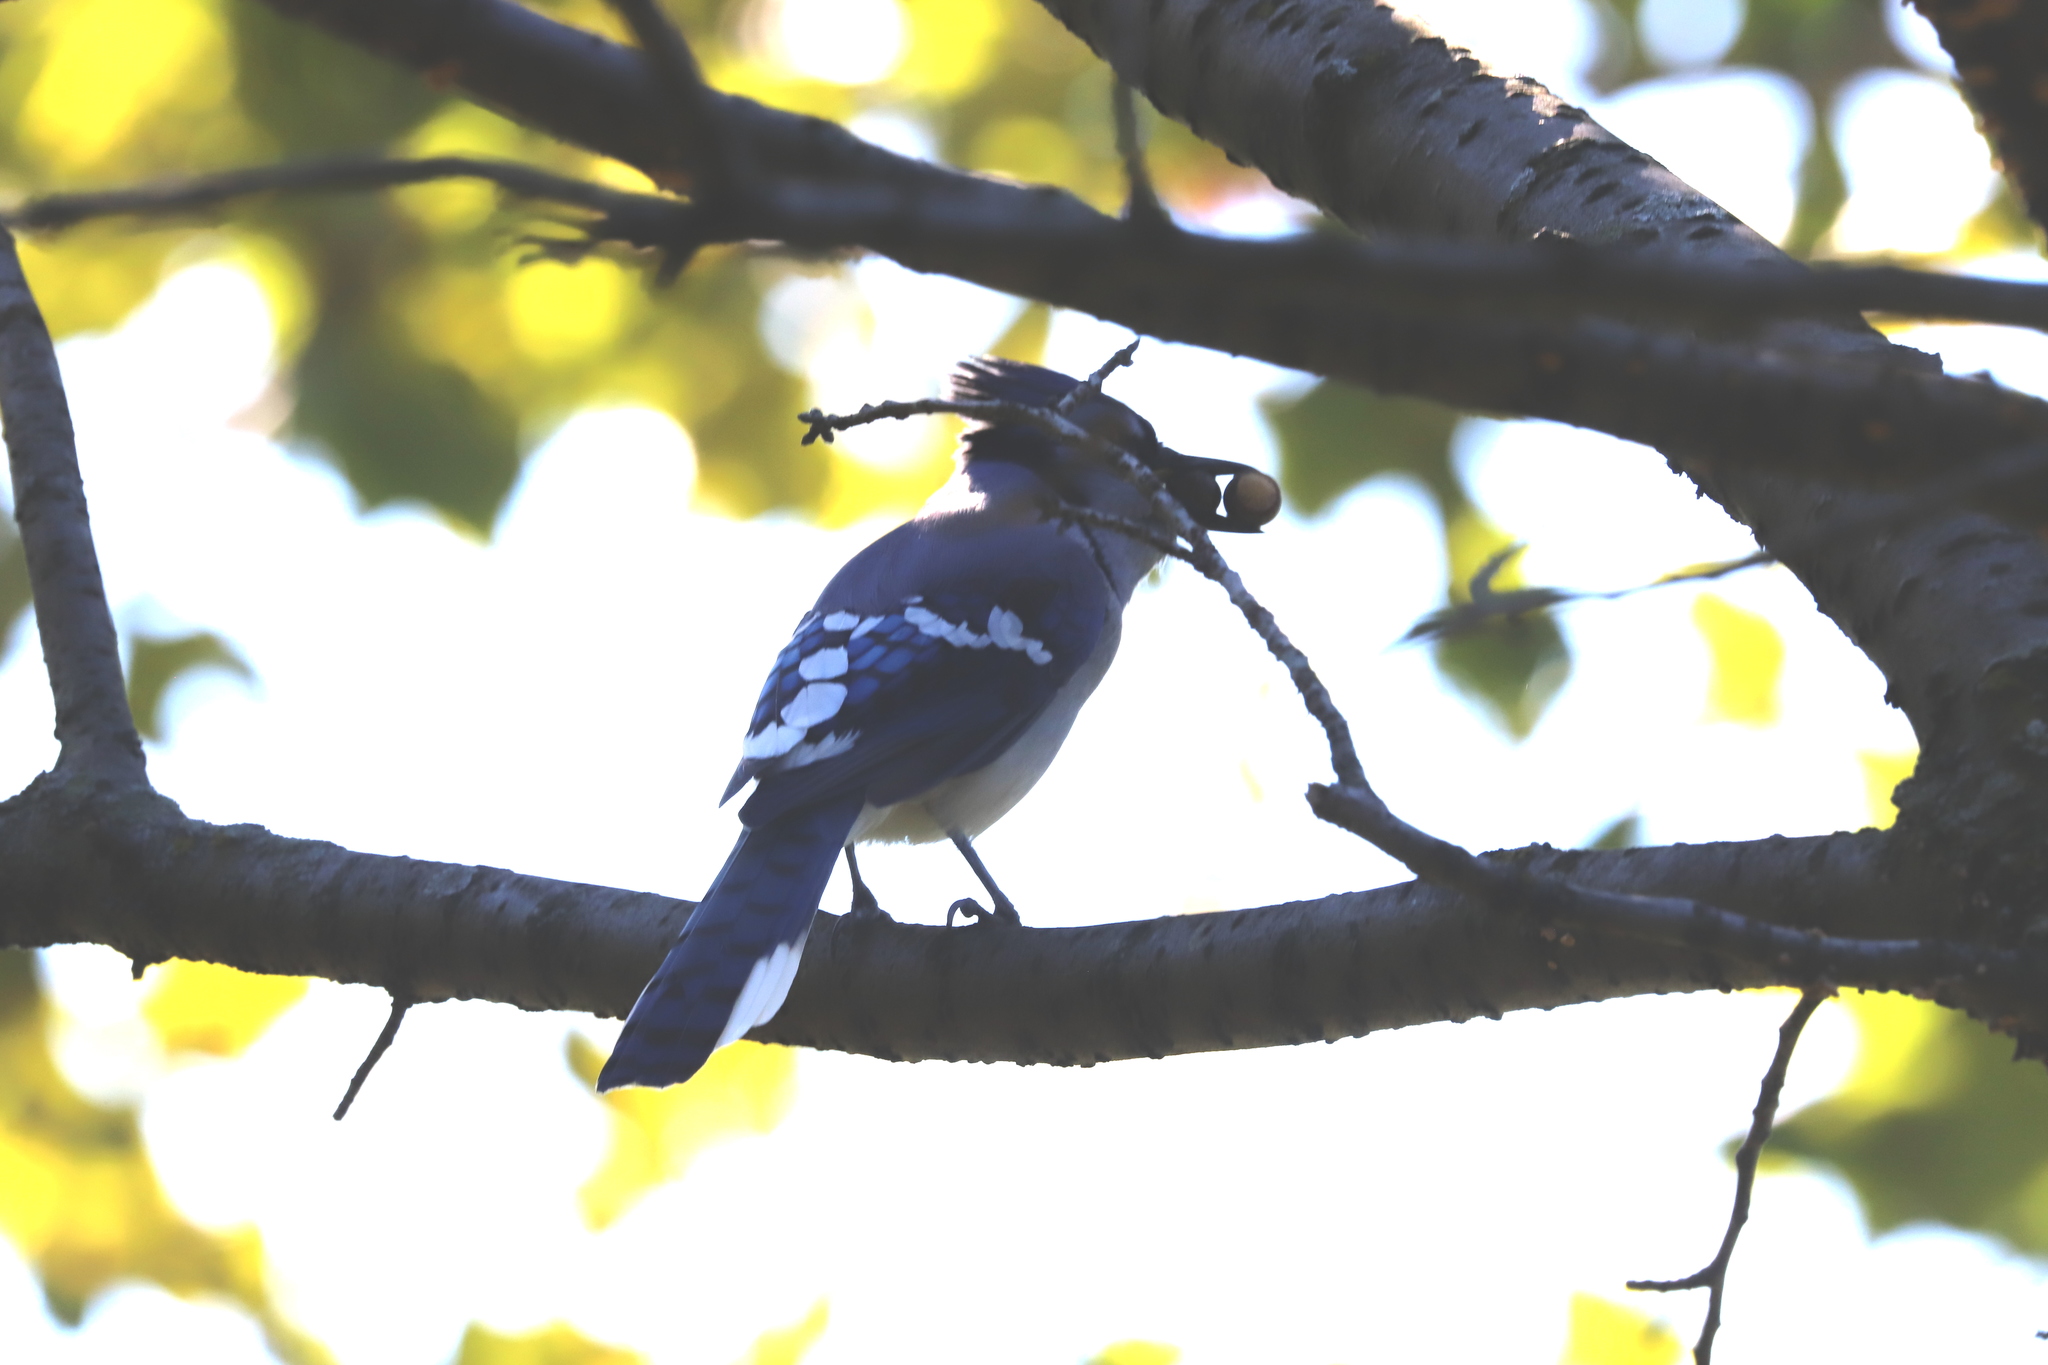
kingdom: Animalia
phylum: Chordata
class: Aves
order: Passeriformes
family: Corvidae
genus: Cyanocitta
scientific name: Cyanocitta cristata
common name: Blue jay
